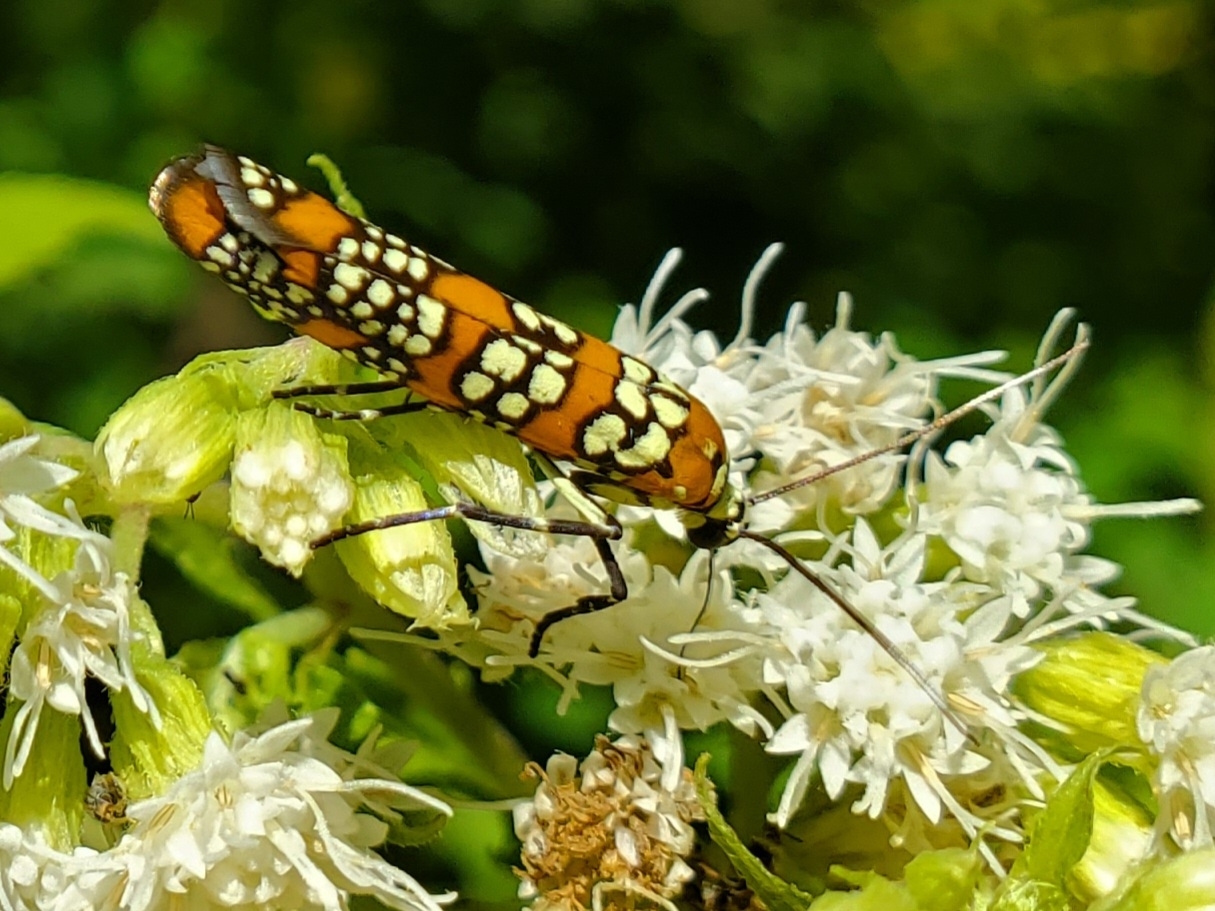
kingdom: Animalia
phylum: Arthropoda
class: Insecta
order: Lepidoptera
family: Attevidae
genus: Atteva
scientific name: Atteva punctella
